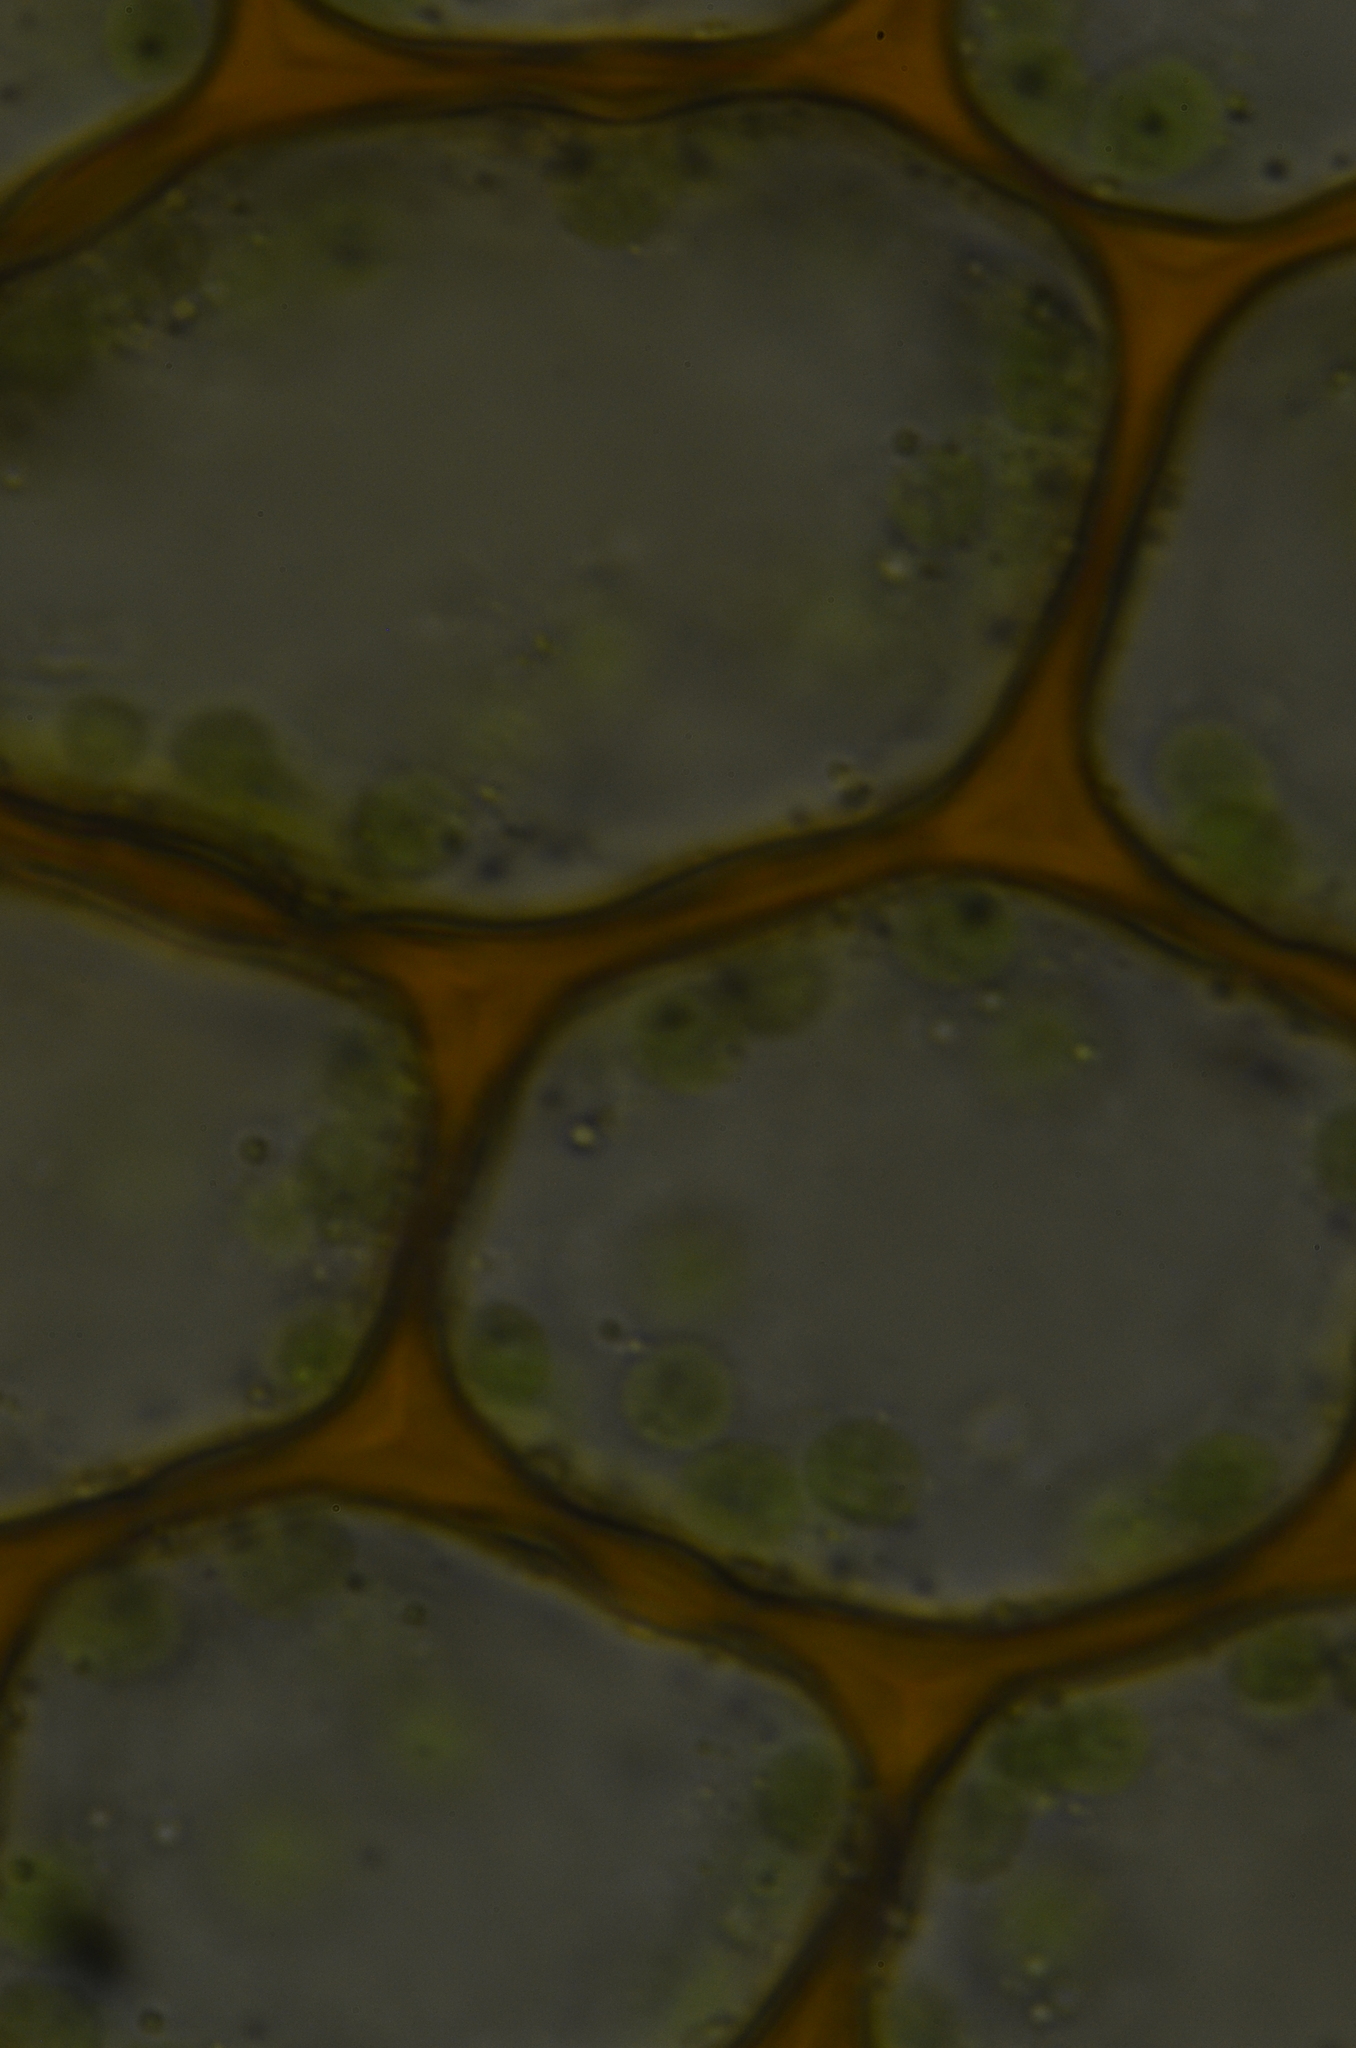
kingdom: Plantae
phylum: Bryophyta
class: Bryopsida
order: Bryales
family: Mniaceae
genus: Plagiomnium
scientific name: Plagiomnium ellipticum
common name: Marsh leafy moss
